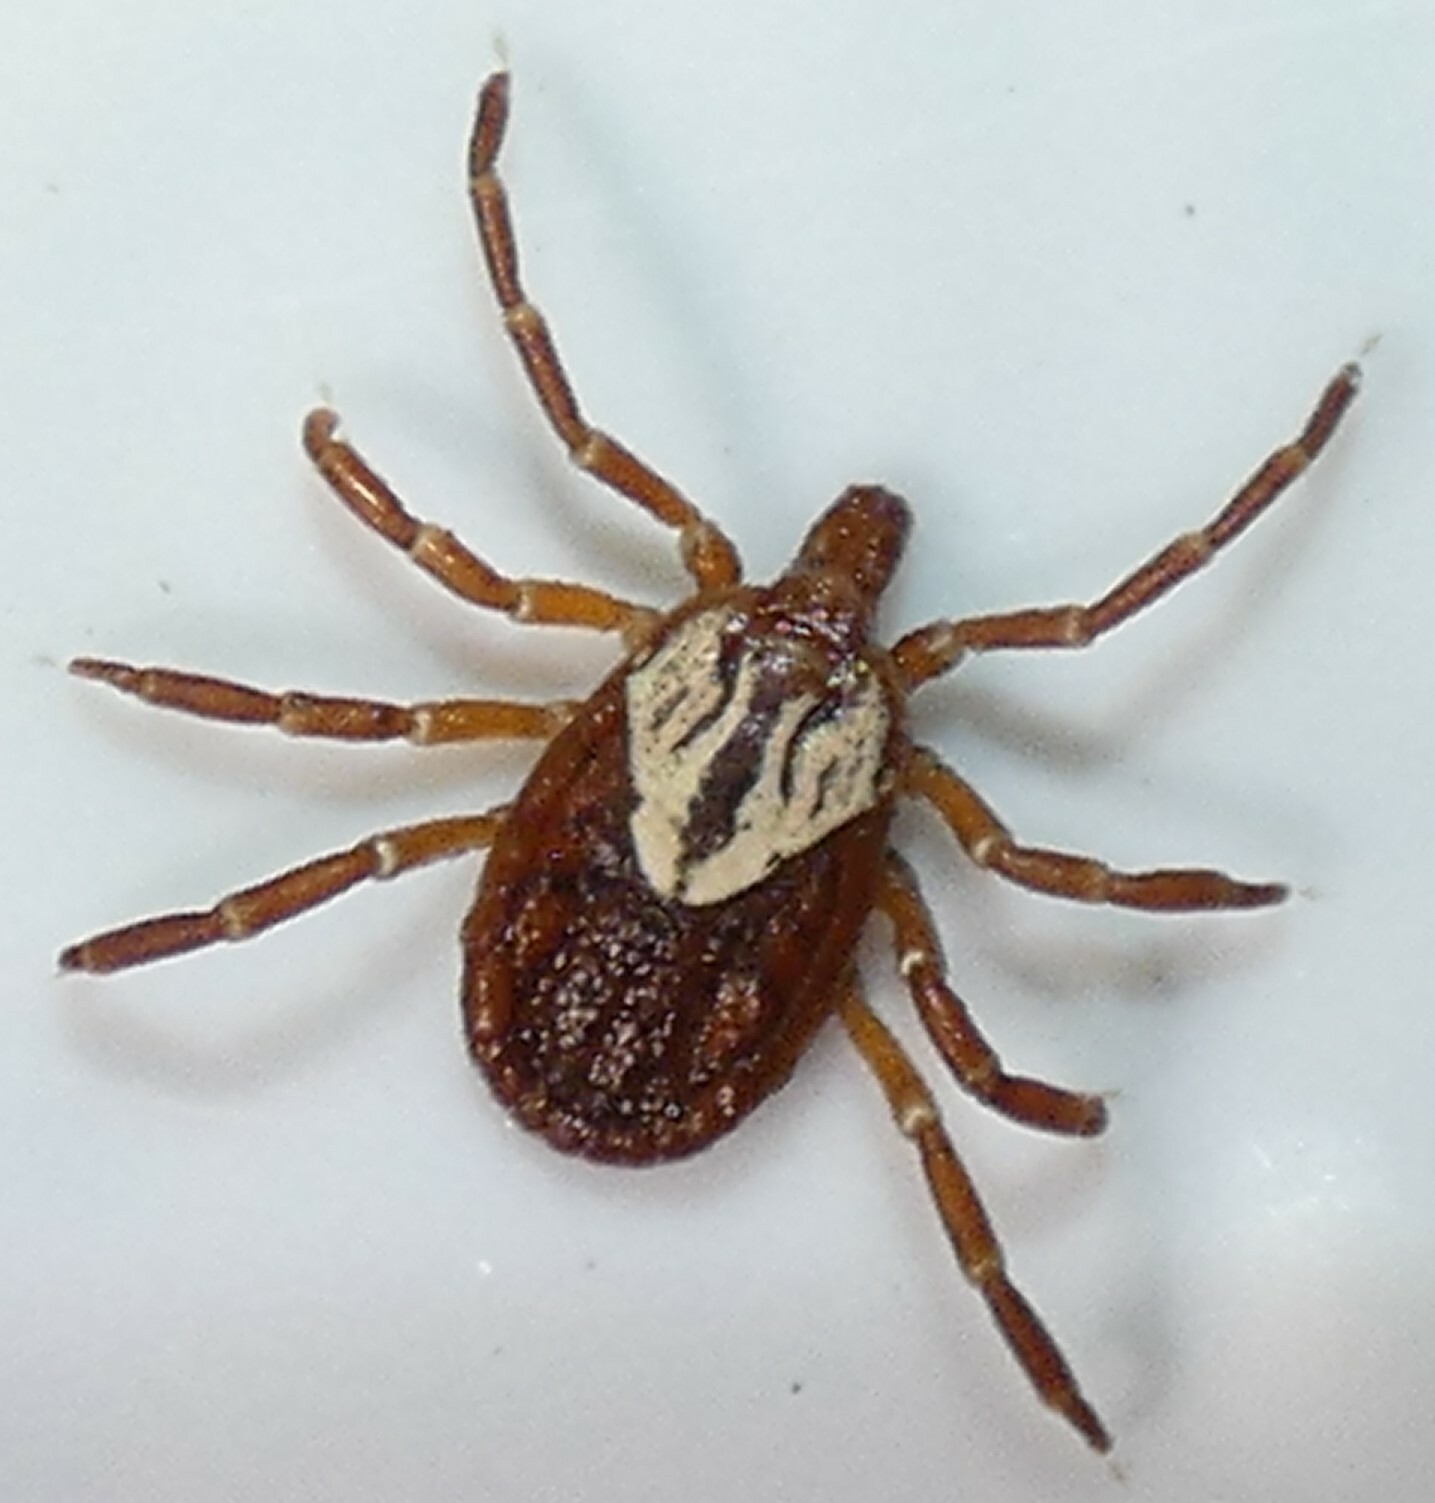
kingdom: Animalia
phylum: Arthropoda
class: Arachnida
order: Ixodida
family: Ixodidae
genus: Amblyomma
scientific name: Amblyomma maculatum
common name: Gulf coast tick
